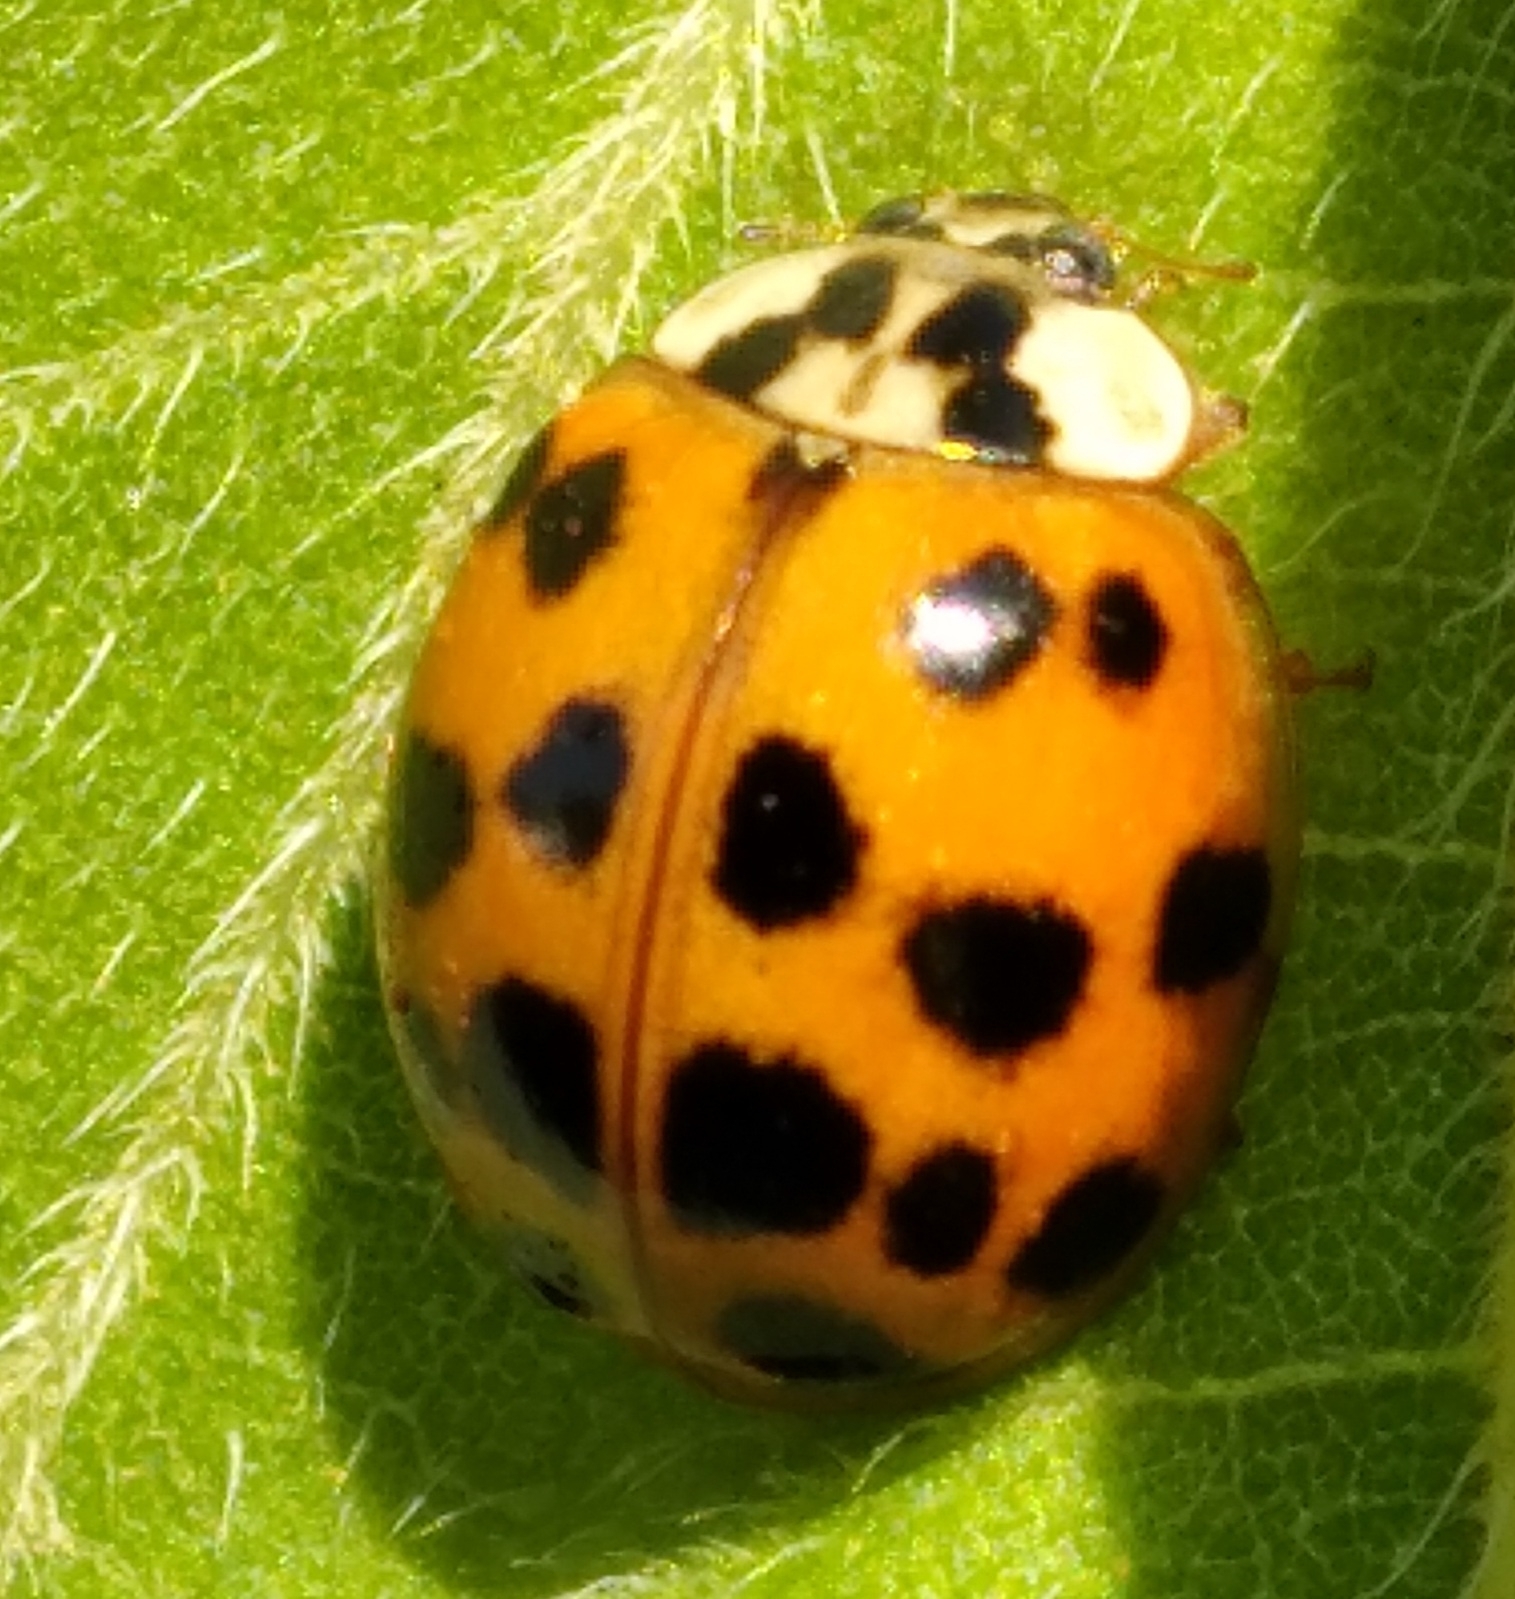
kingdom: Animalia
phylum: Arthropoda
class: Insecta
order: Coleoptera
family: Coccinellidae
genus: Harmonia
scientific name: Harmonia axyridis
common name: Harlequin ladybird
